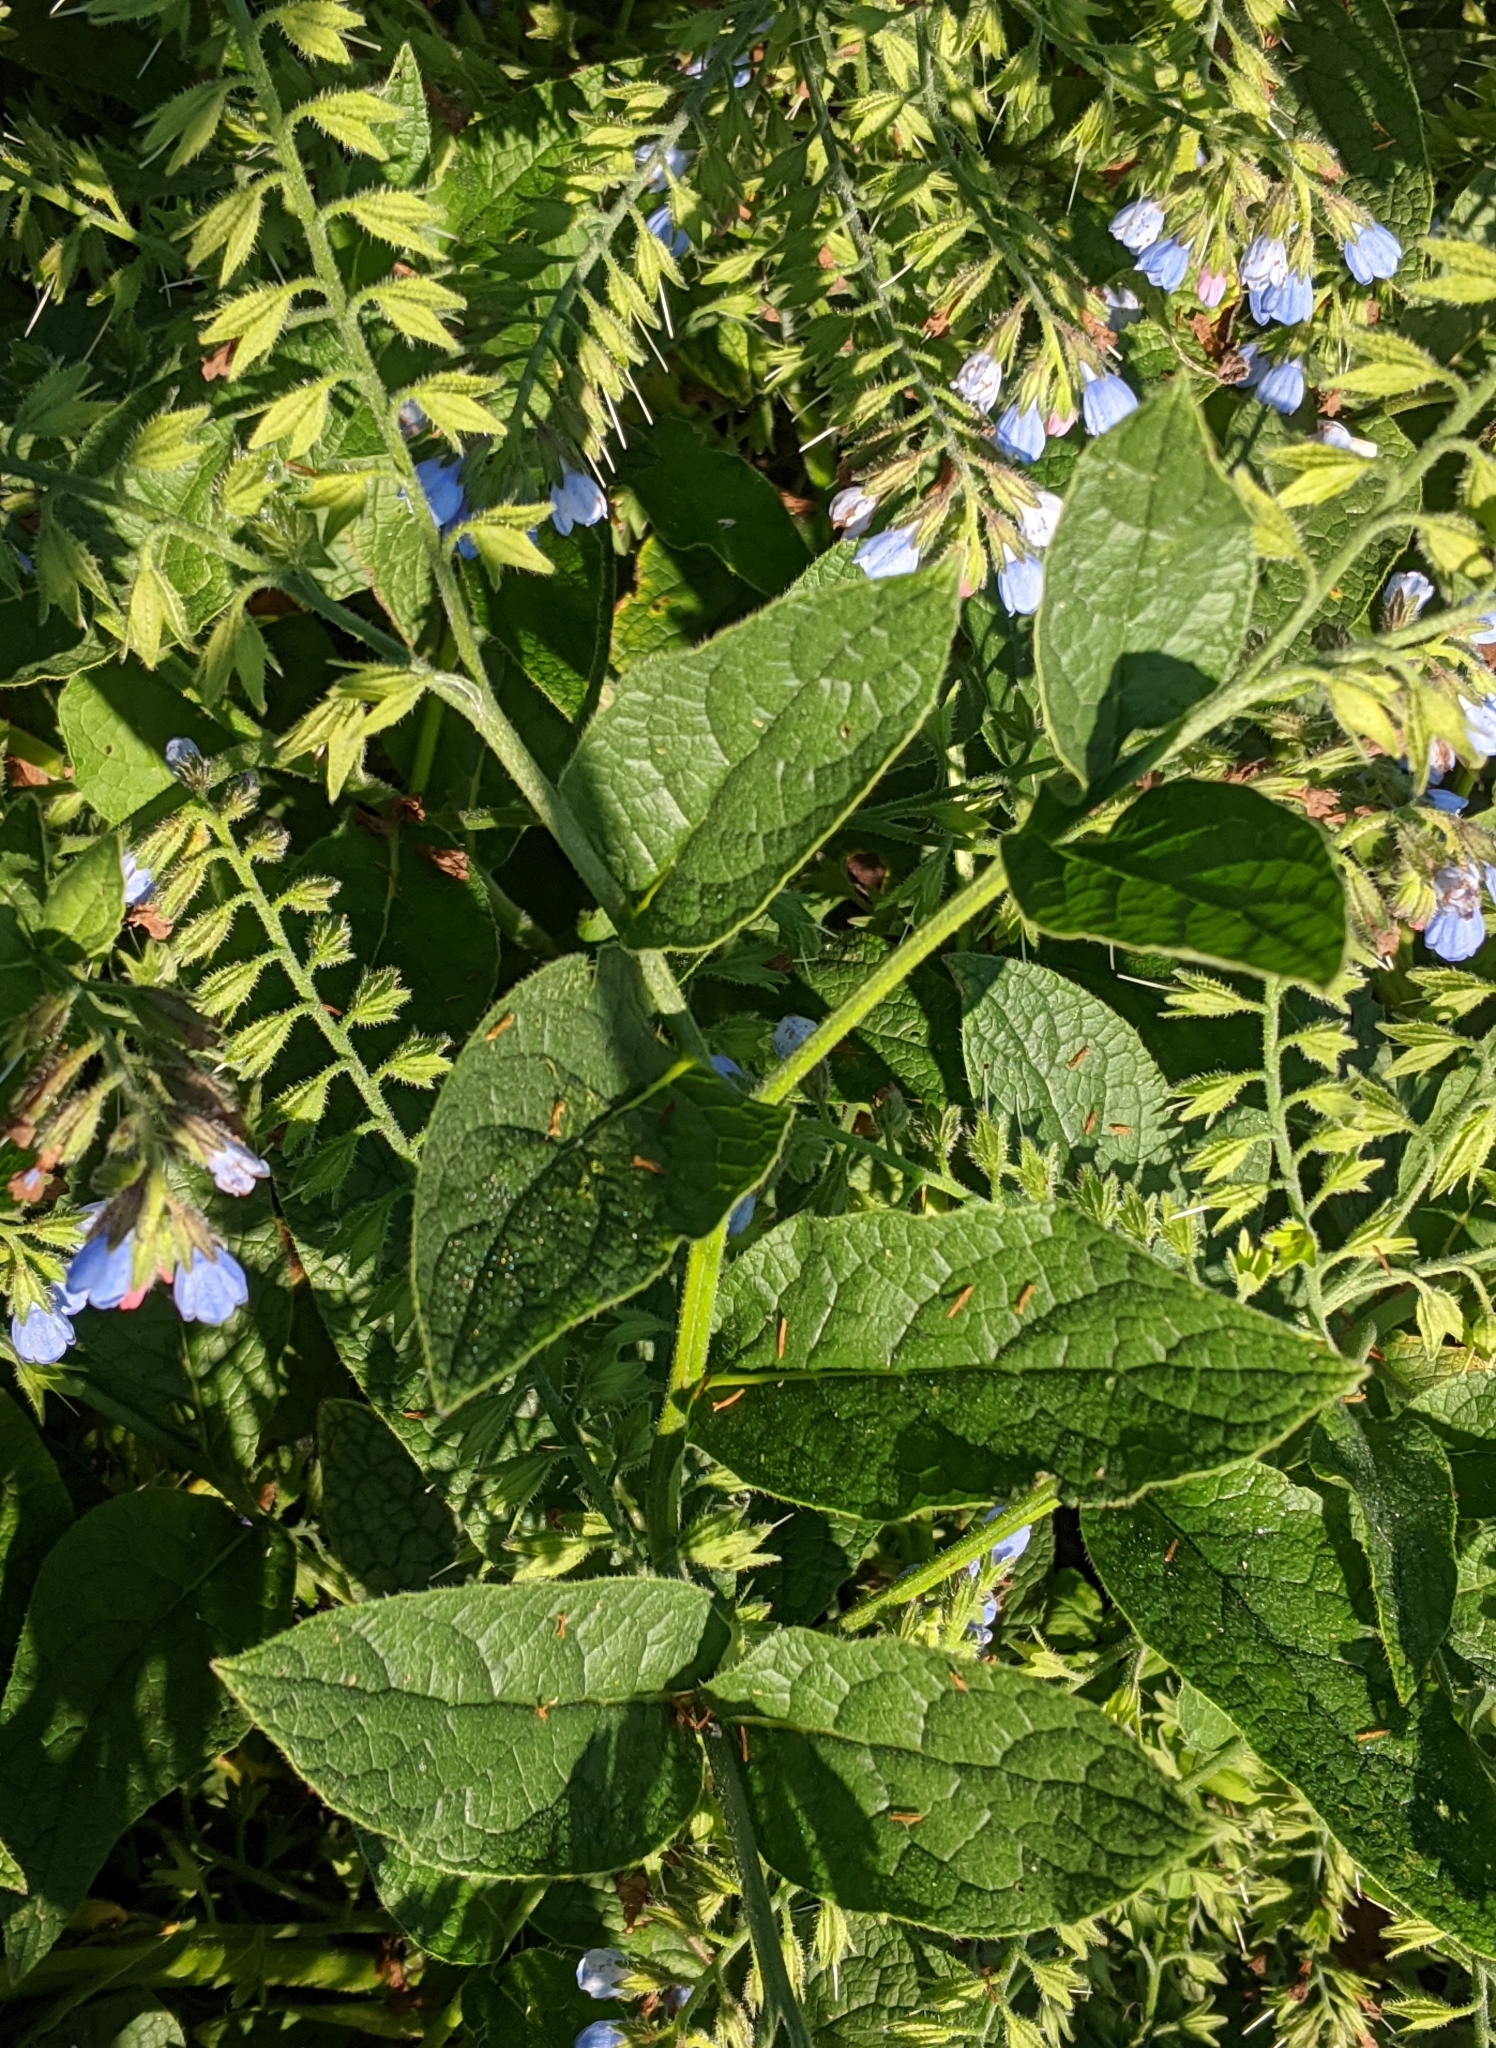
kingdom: Plantae
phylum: Tracheophyta
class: Magnoliopsida
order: Boraginales
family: Boraginaceae
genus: Symphytum
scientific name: Symphytum caucasicum
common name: Caucasian comfrey
